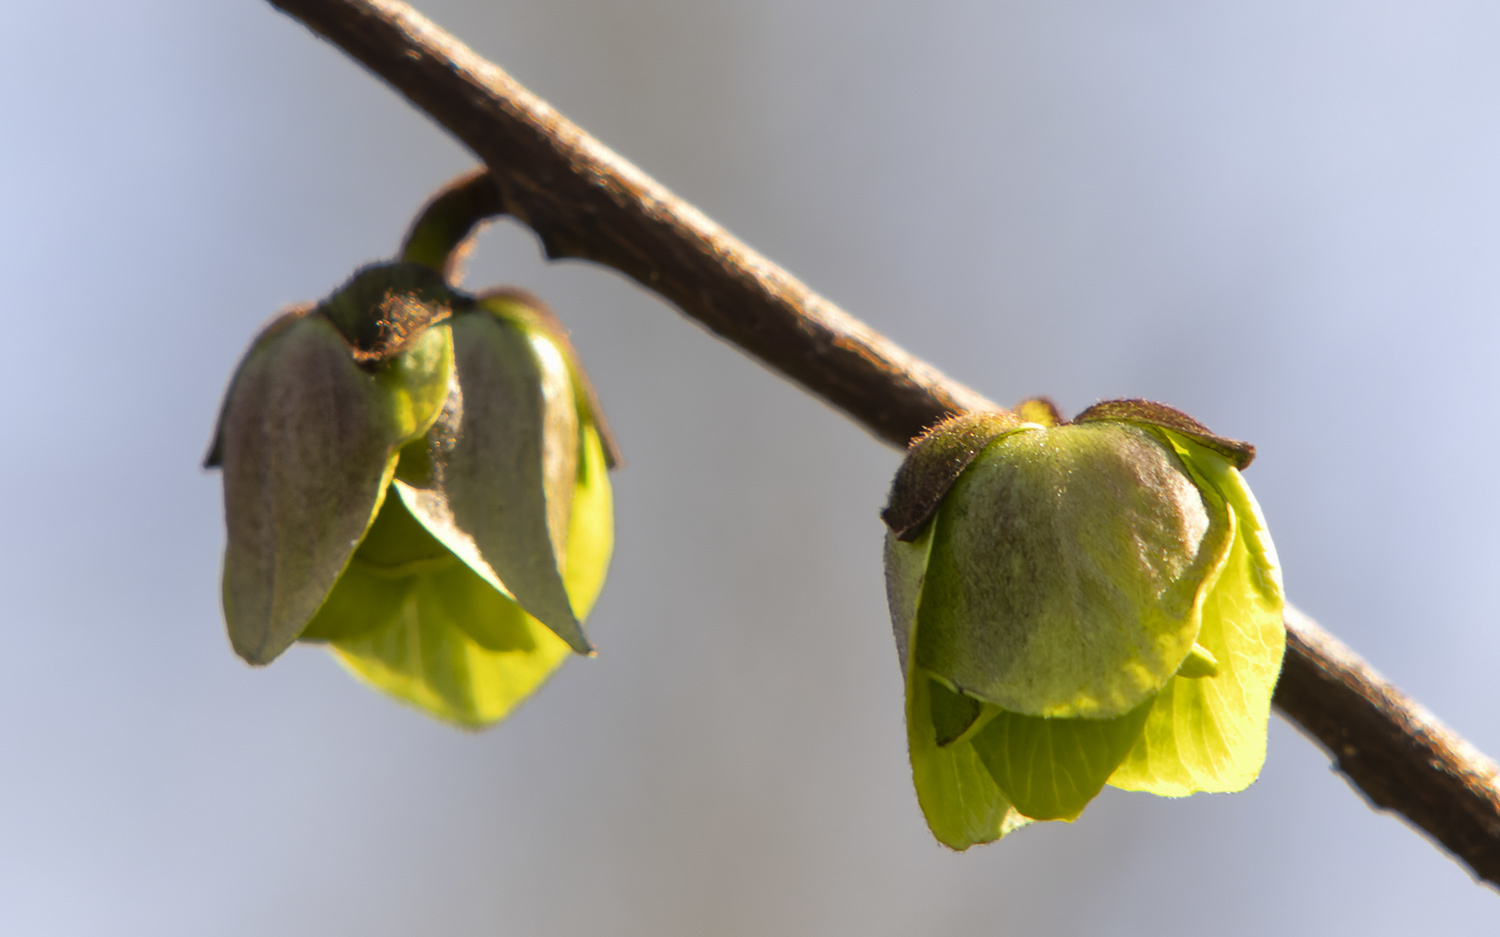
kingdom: Plantae
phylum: Tracheophyta
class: Magnoliopsida
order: Magnoliales
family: Annonaceae
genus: Asimina
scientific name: Asimina triloba
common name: Dog-banana
